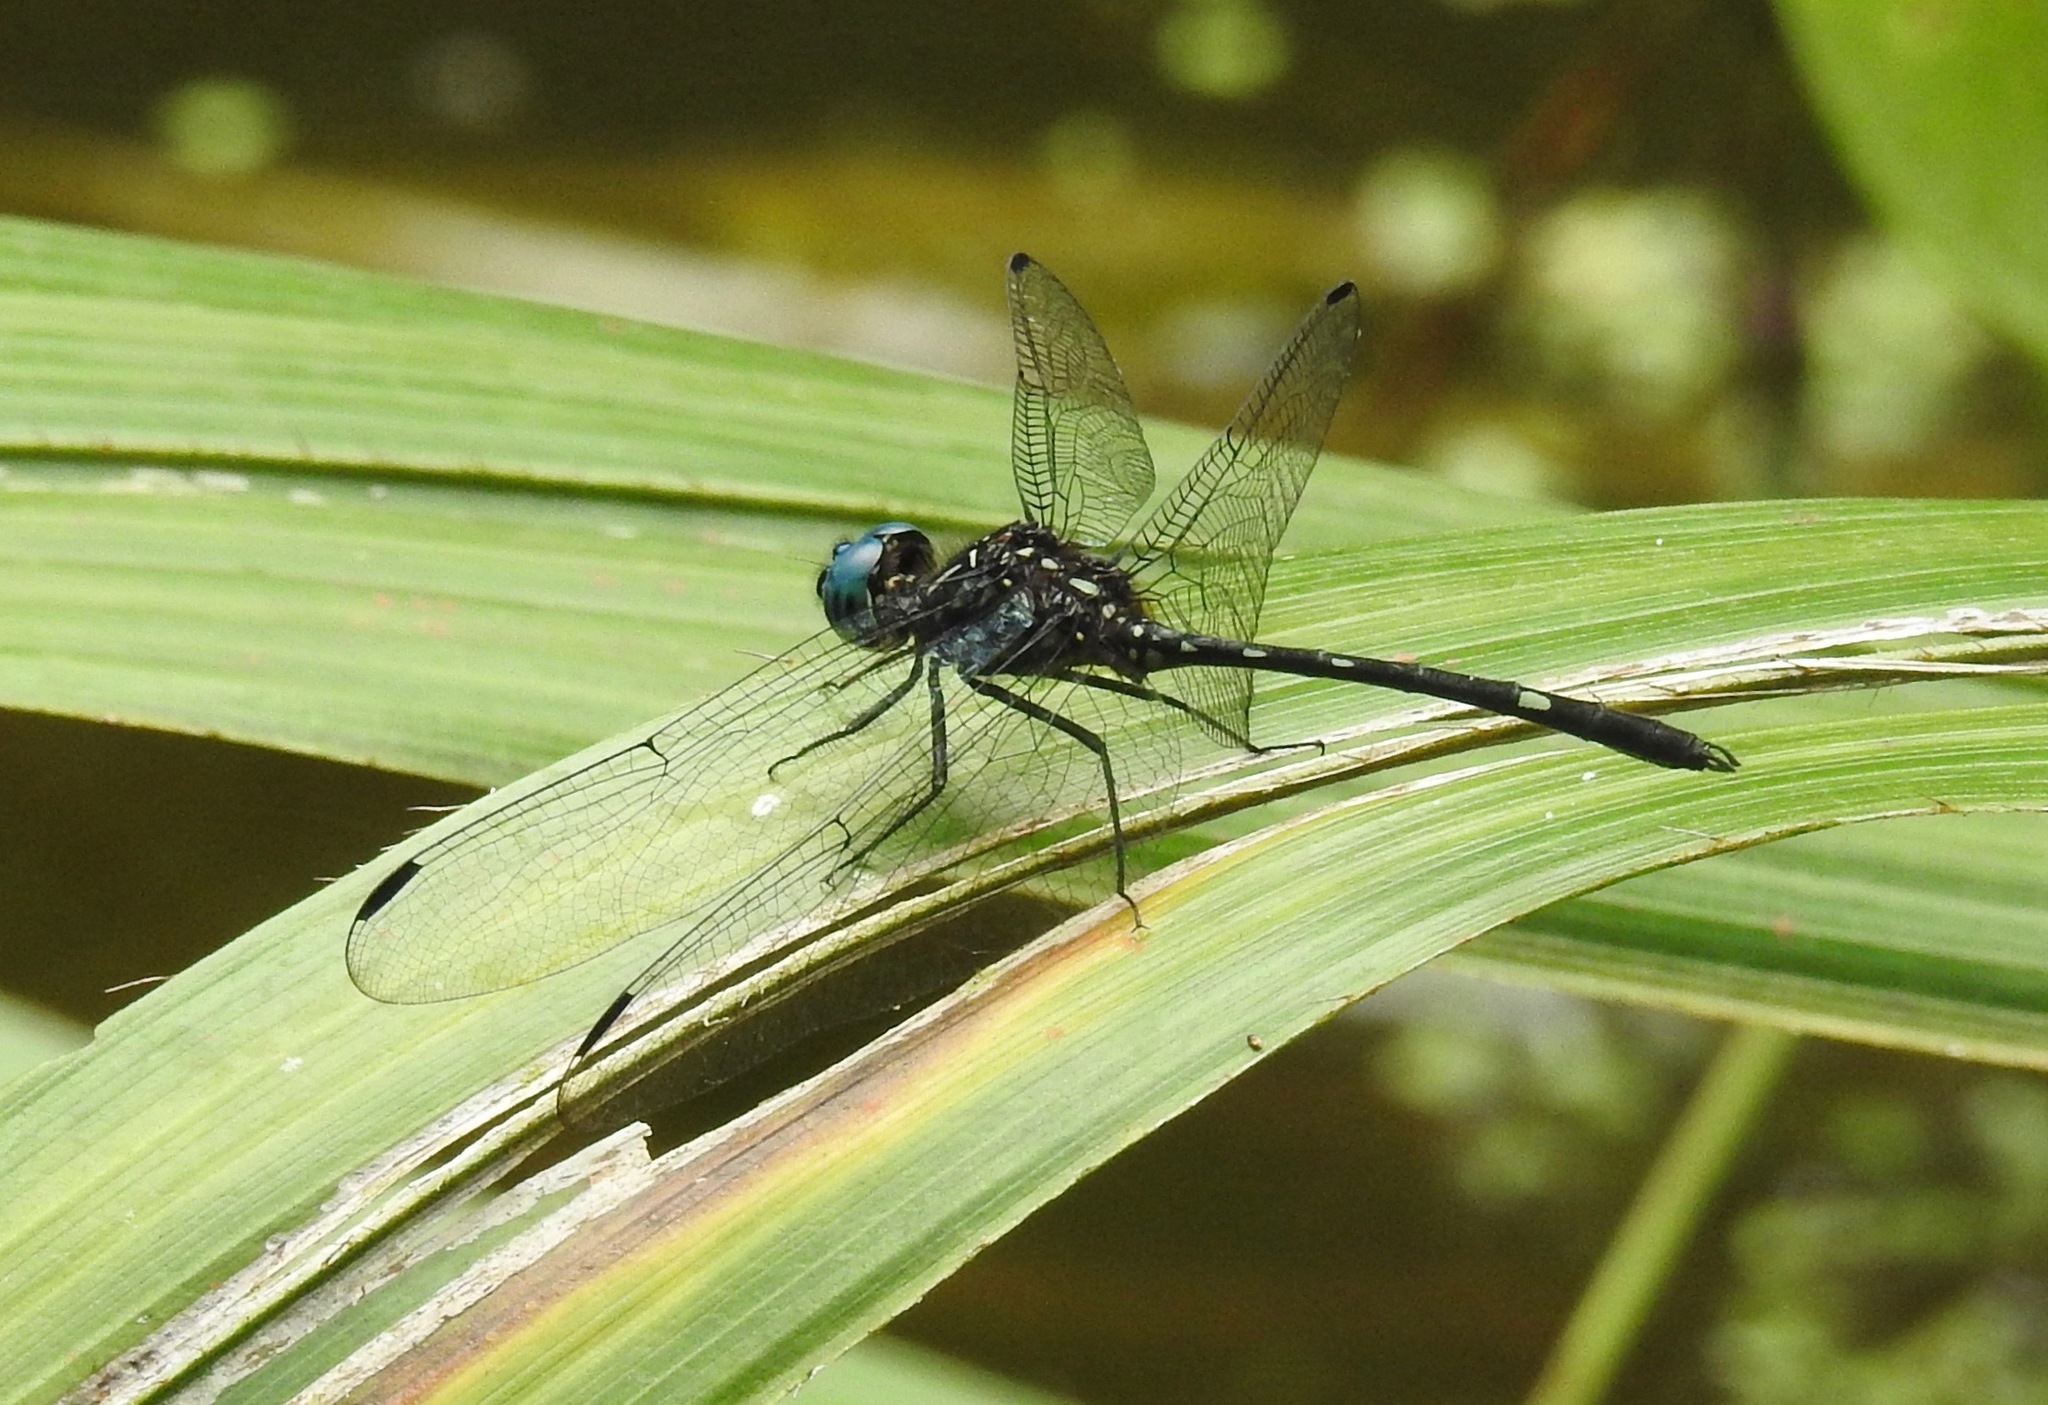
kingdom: Animalia
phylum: Arthropoda
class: Insecta
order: Odonata
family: Libellulidae
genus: Dythemis
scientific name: Dythemis nigra
